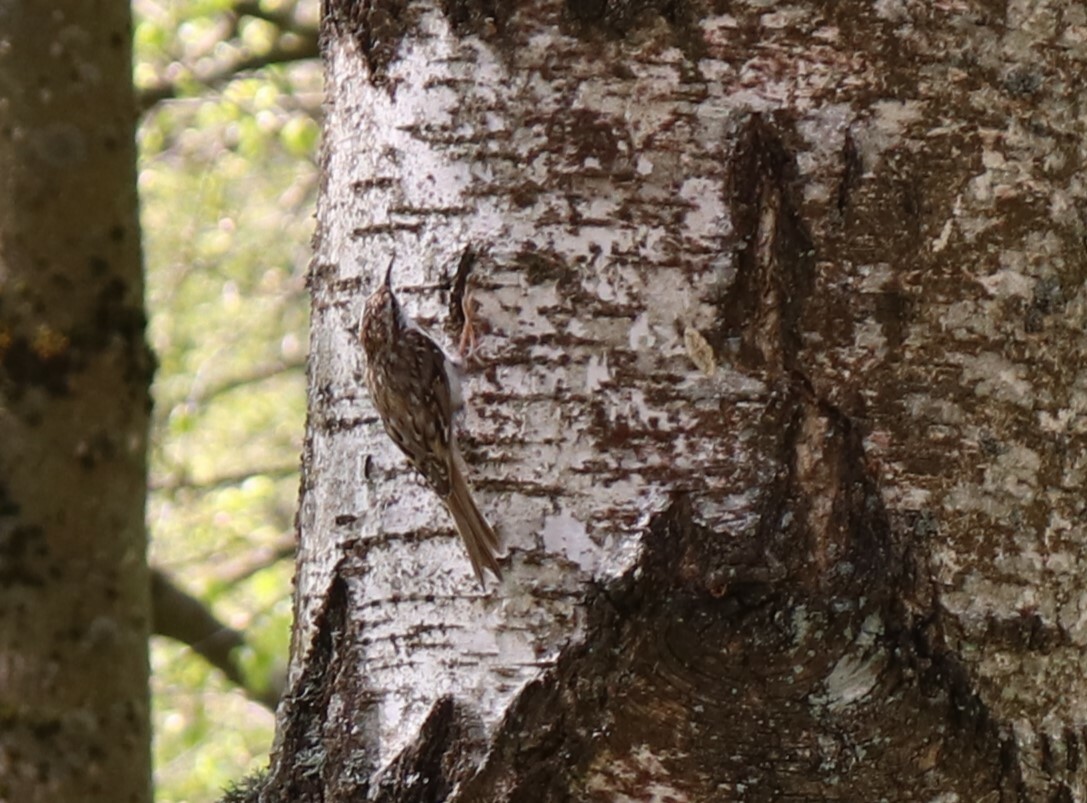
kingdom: Animalia
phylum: Chordata
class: Aves
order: Passeriformes
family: Certhiidae
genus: Certhia
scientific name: Certhia familiaris
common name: Eurasian treecreeper
